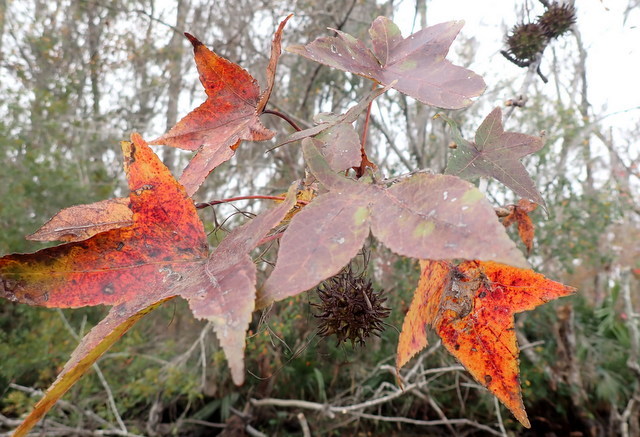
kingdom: Plantae
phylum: Tracheophyta
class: Magnoliopsida
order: Saxifragales
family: Altingiaceae
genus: Liquidambar
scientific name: Liquidambar styraciflua
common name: Sweet gum
